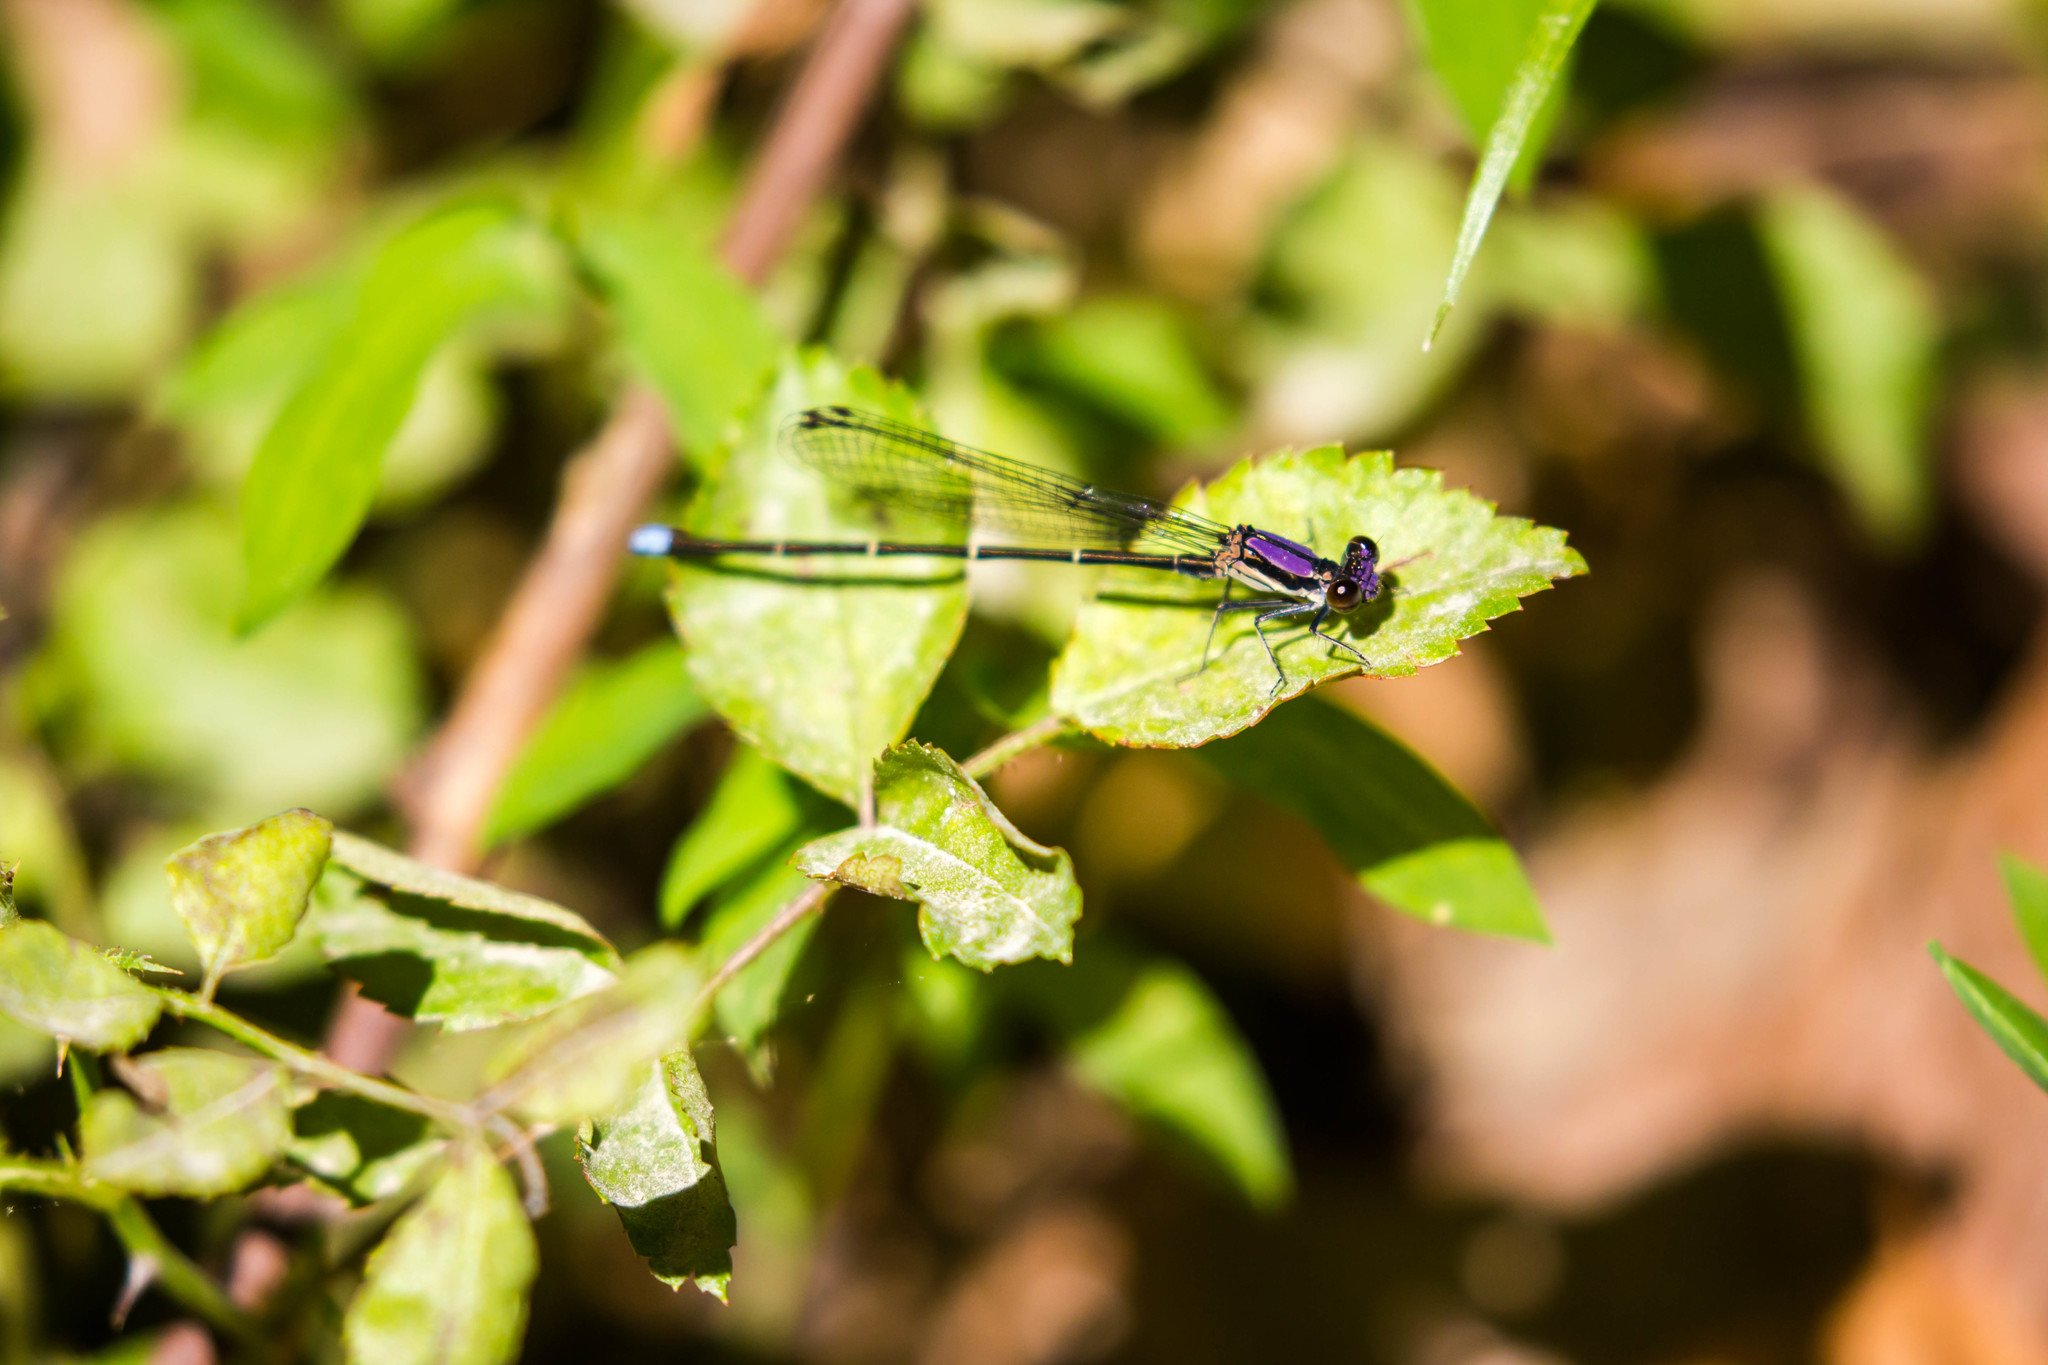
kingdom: Animalia
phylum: Arthropoda
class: Insecta
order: Odonata
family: Coenagrionidae
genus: Argia
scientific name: Argia tibialis
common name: Blue-tipped dancer
